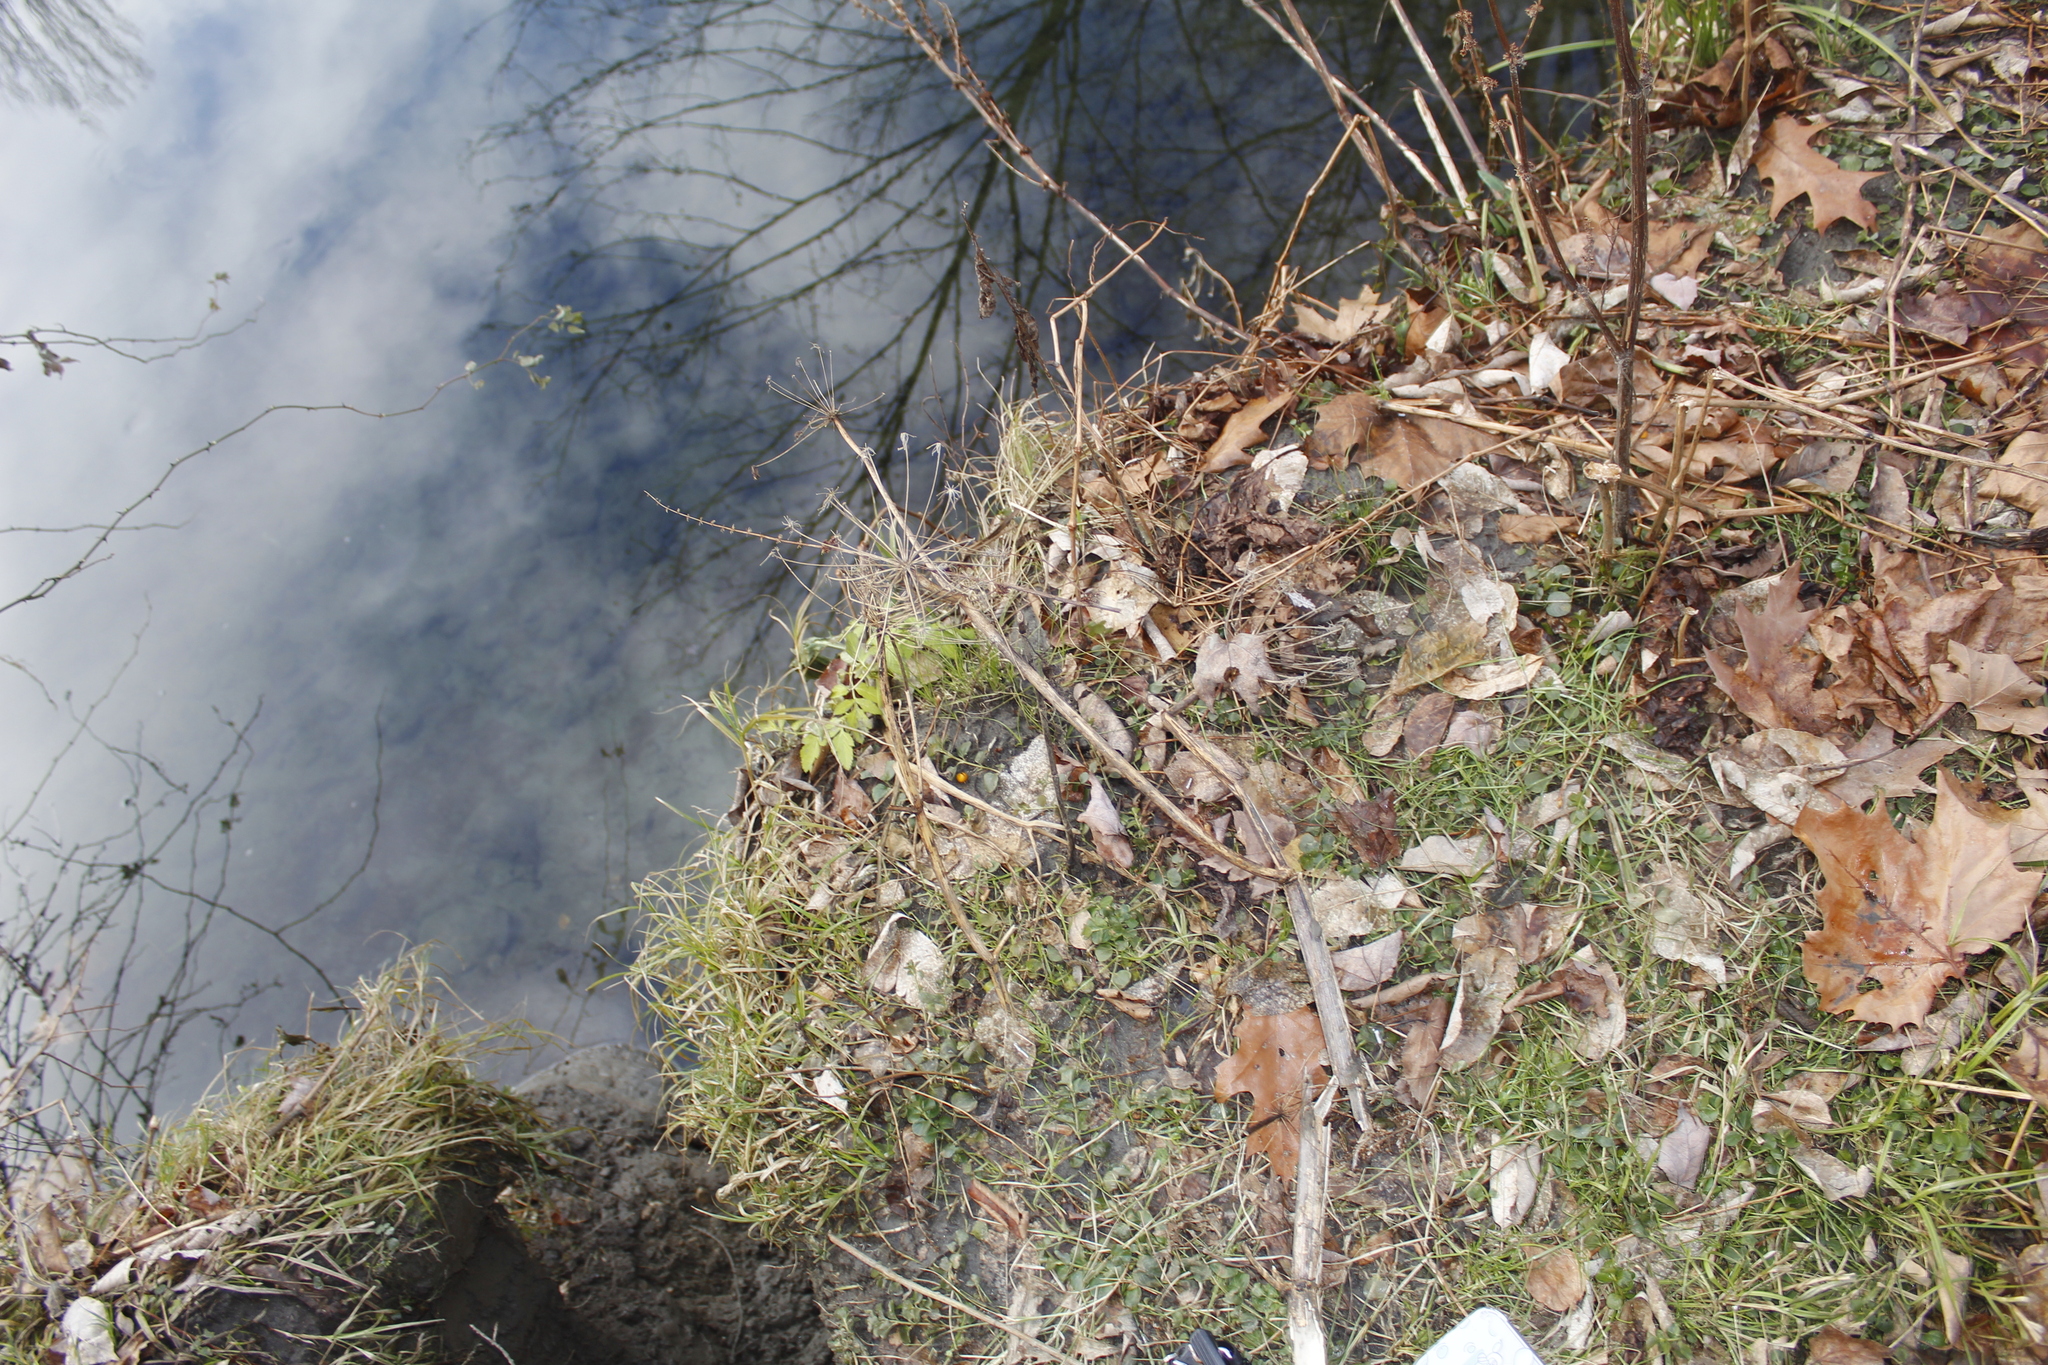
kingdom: Plantae
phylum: Tracheophyta
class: Magnoliopsida
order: Apiales
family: Apiaceae
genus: Angelica
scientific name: Angelica atropurpurea
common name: Great angelica
